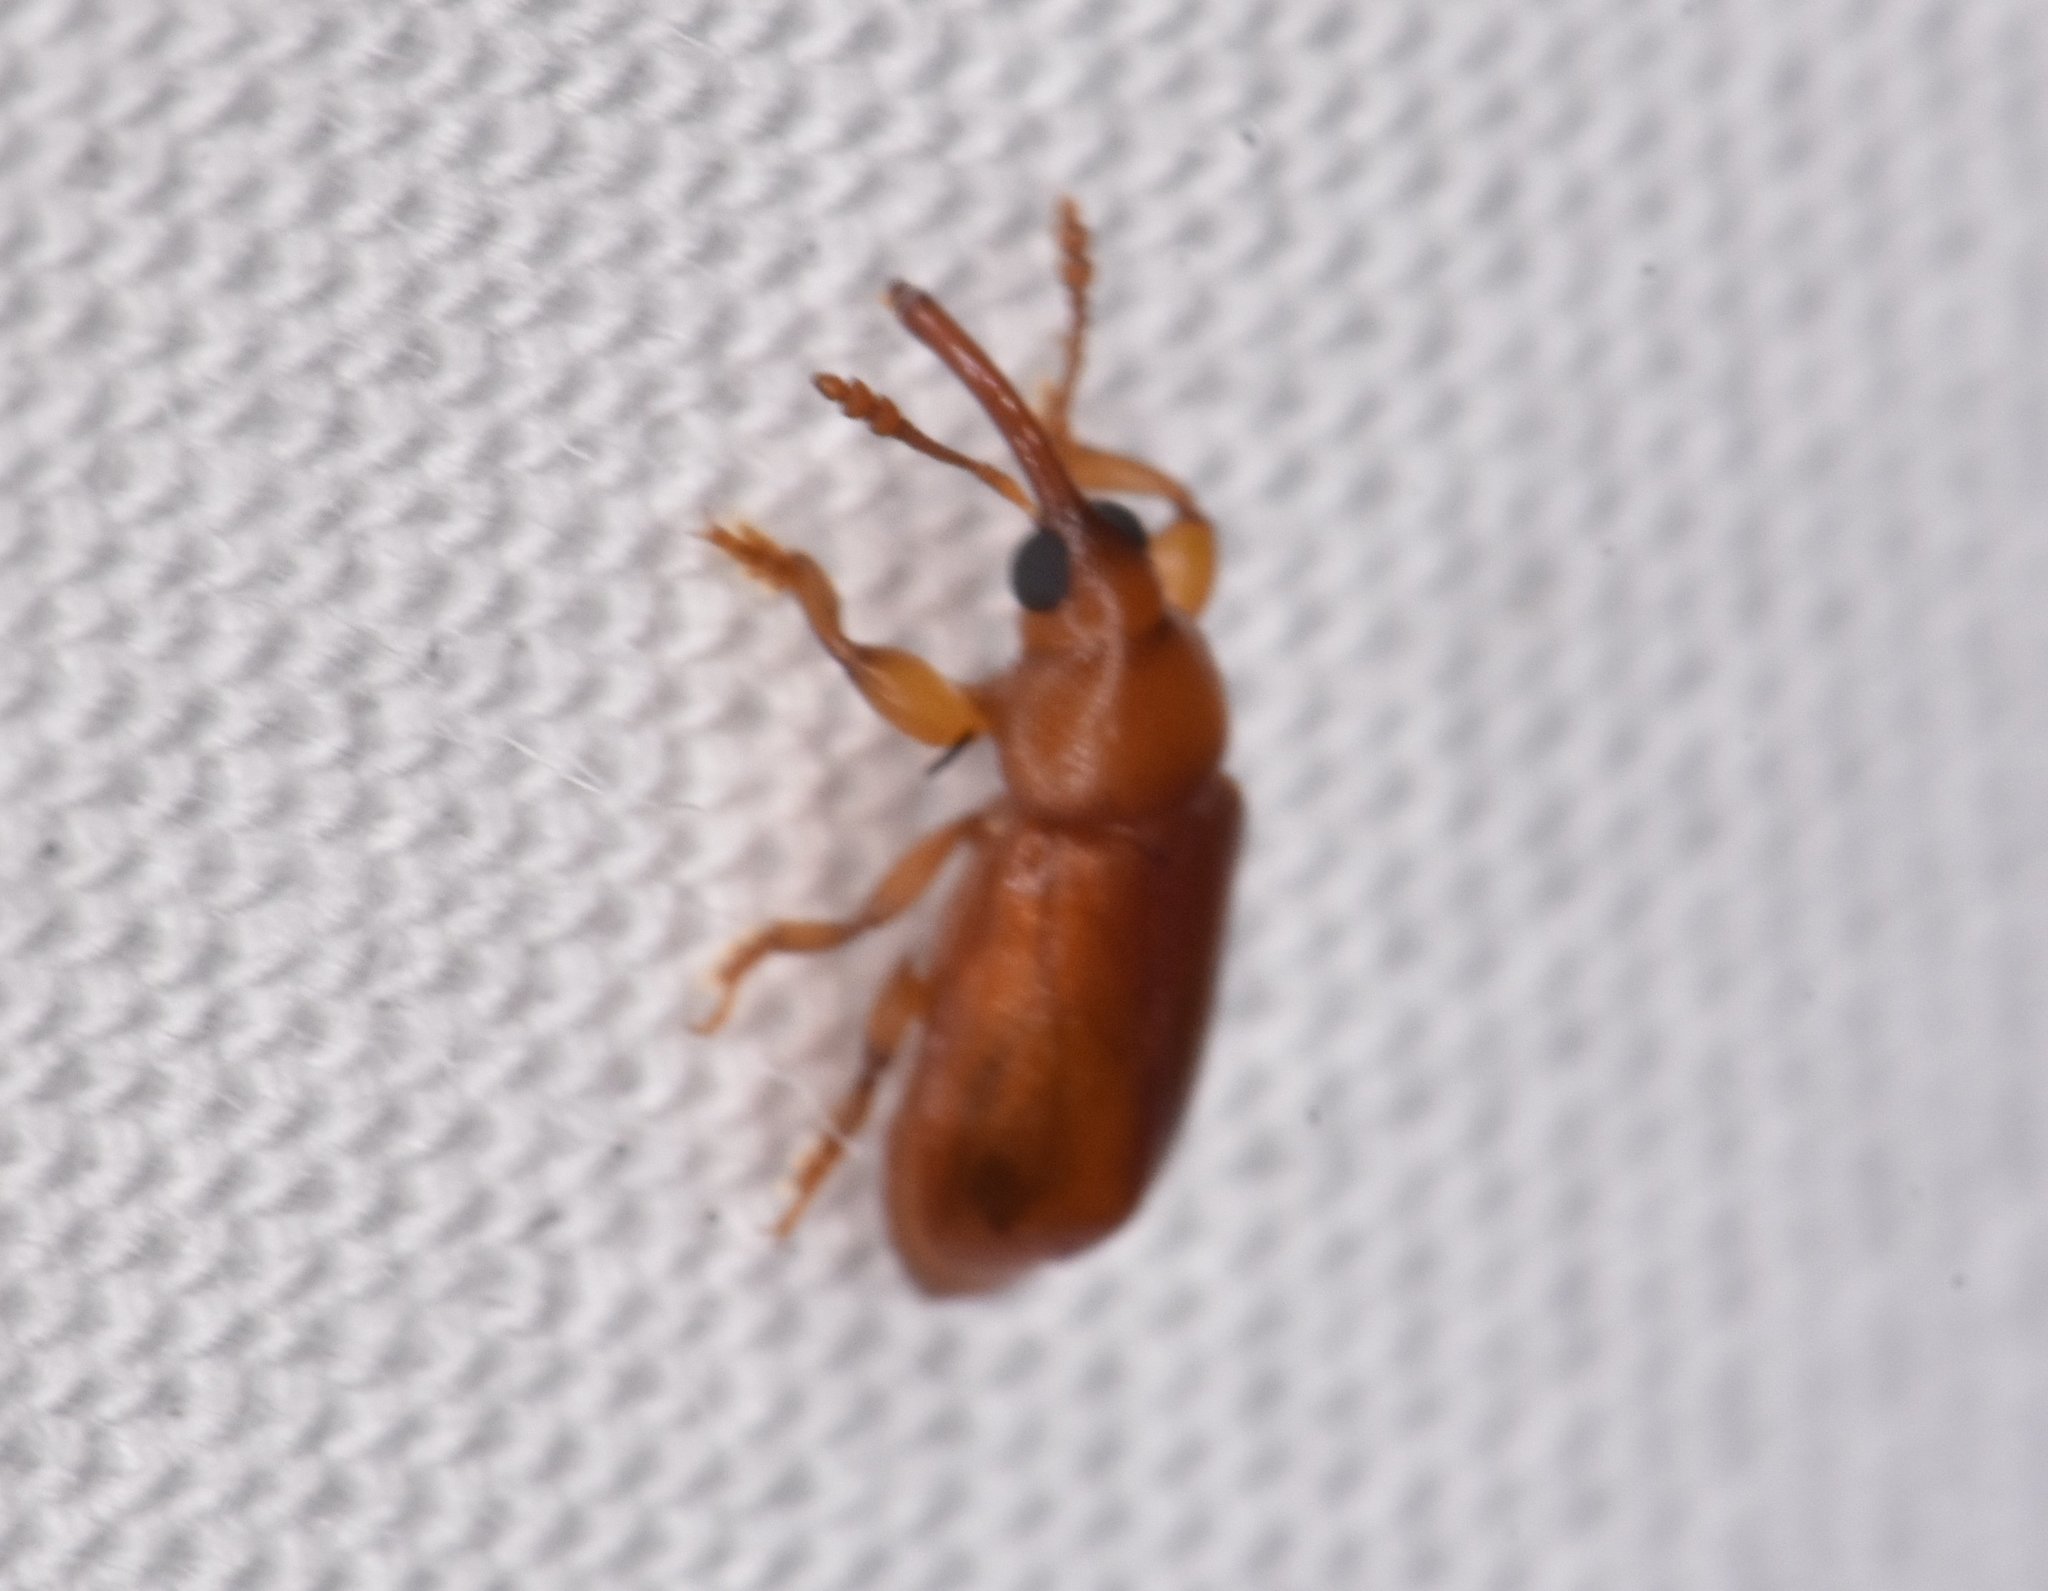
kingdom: Animalia
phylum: Arthropoda
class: Insecta
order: Coleoptera
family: Belidae
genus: Rhopalotria
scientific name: Rhopalotria furfuracea
